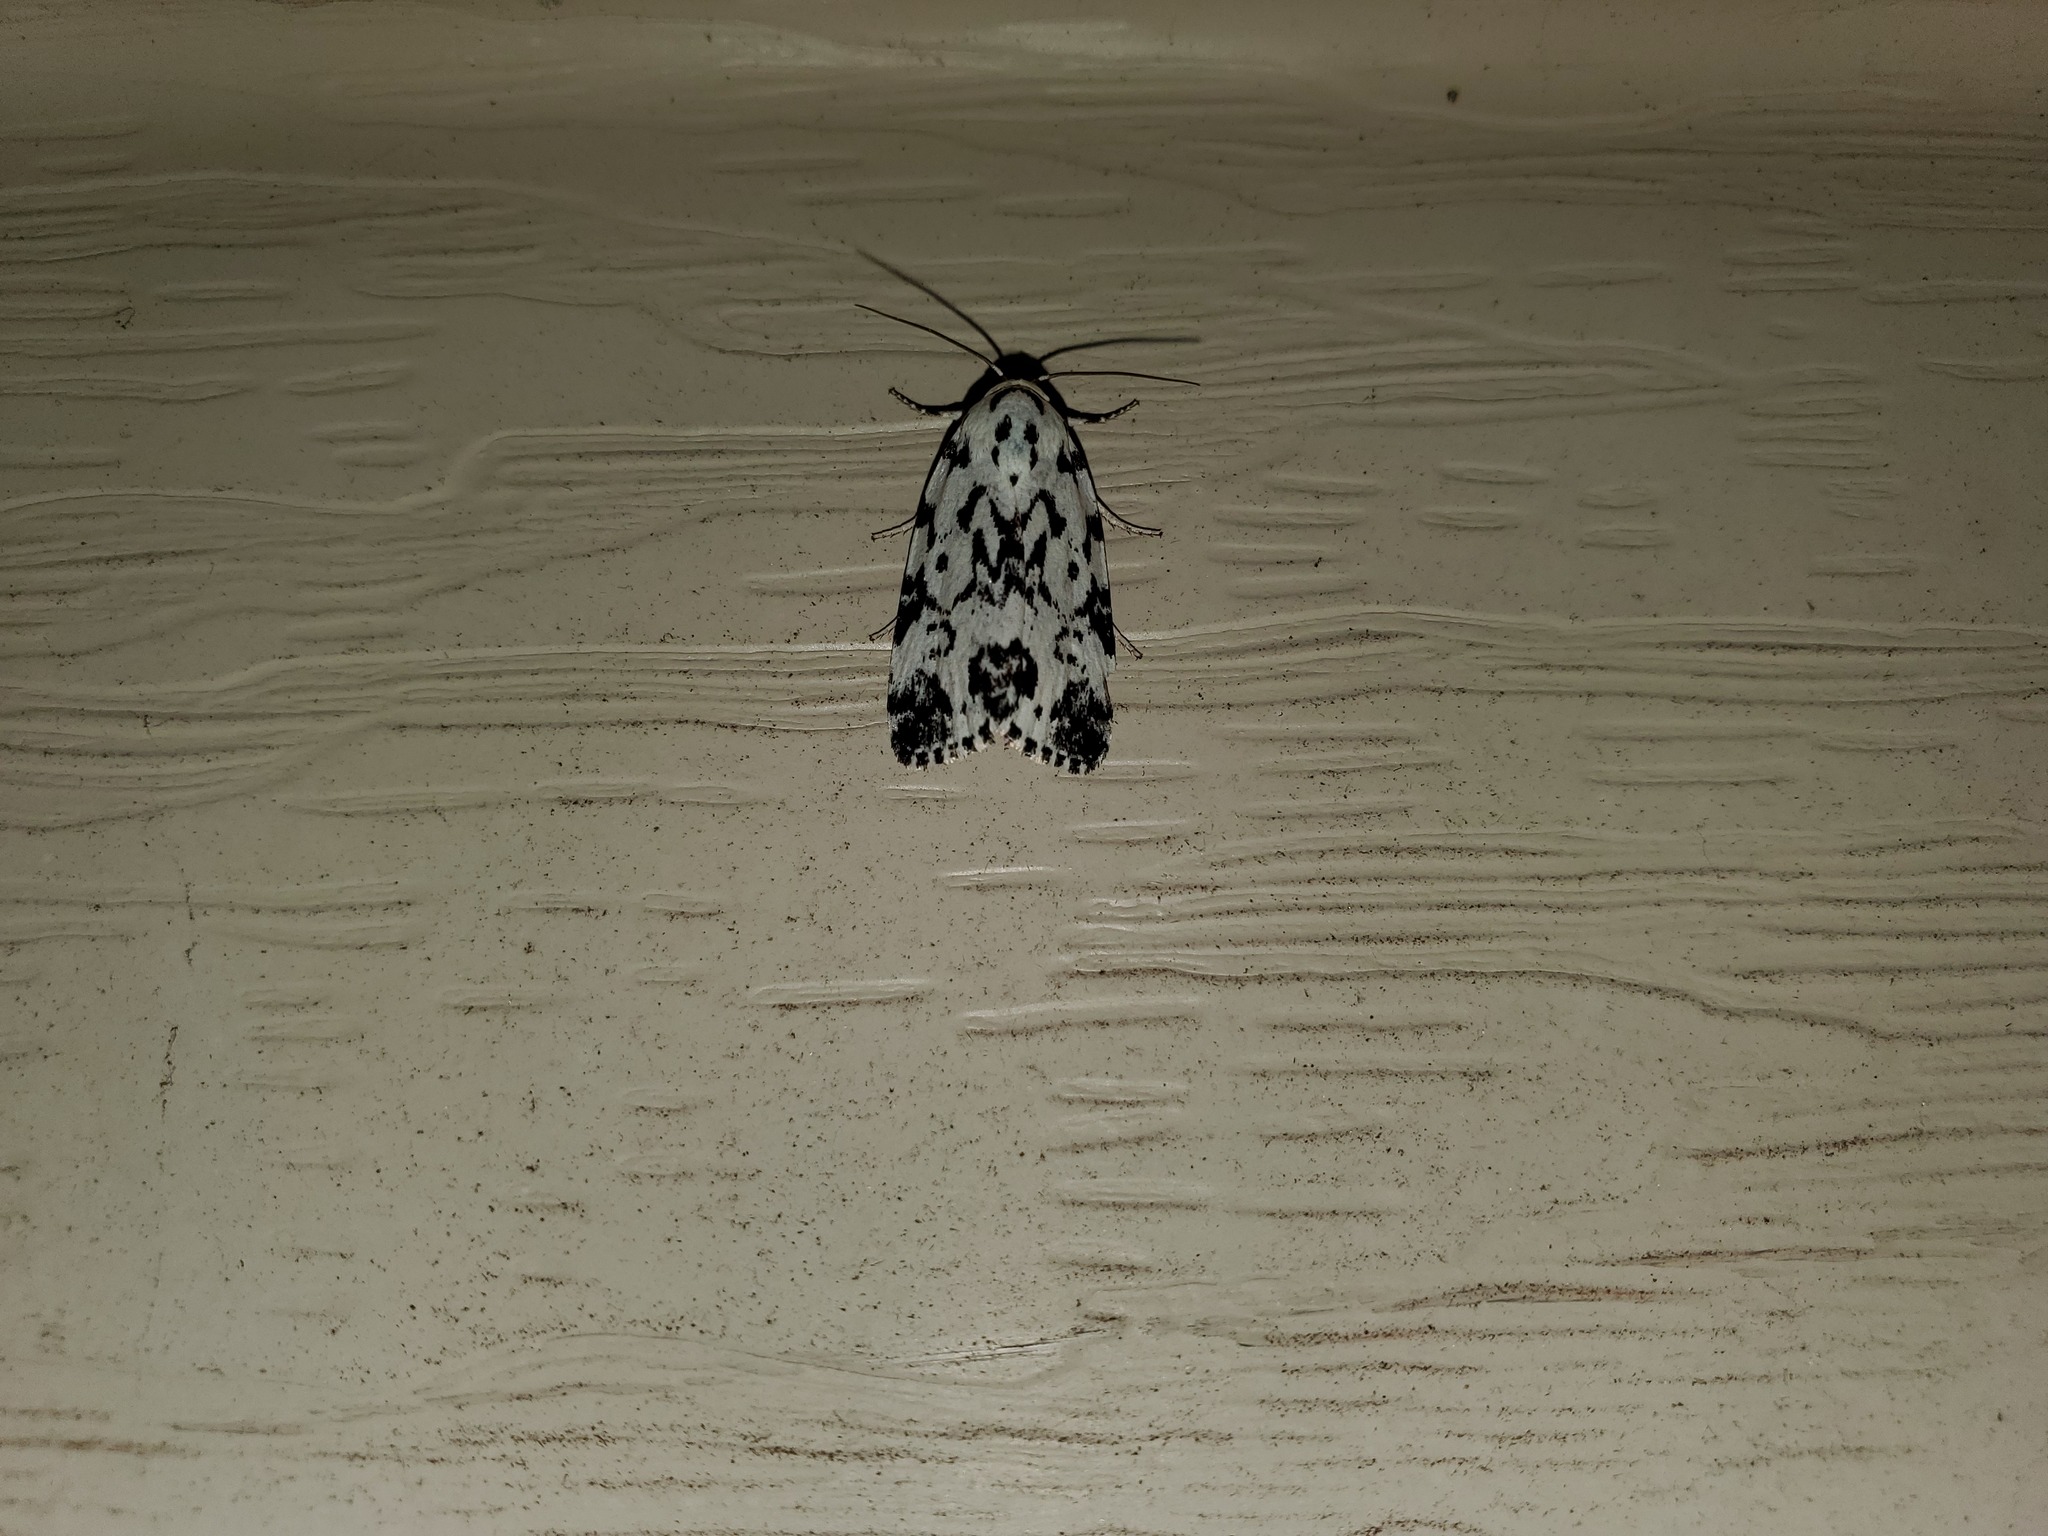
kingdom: Animalia
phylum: Arthropoda
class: Insecta
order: Lepidoptera
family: Noctuidae
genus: Polygrammate
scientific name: Polygrammate hebraeicum
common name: Hebrew moth
